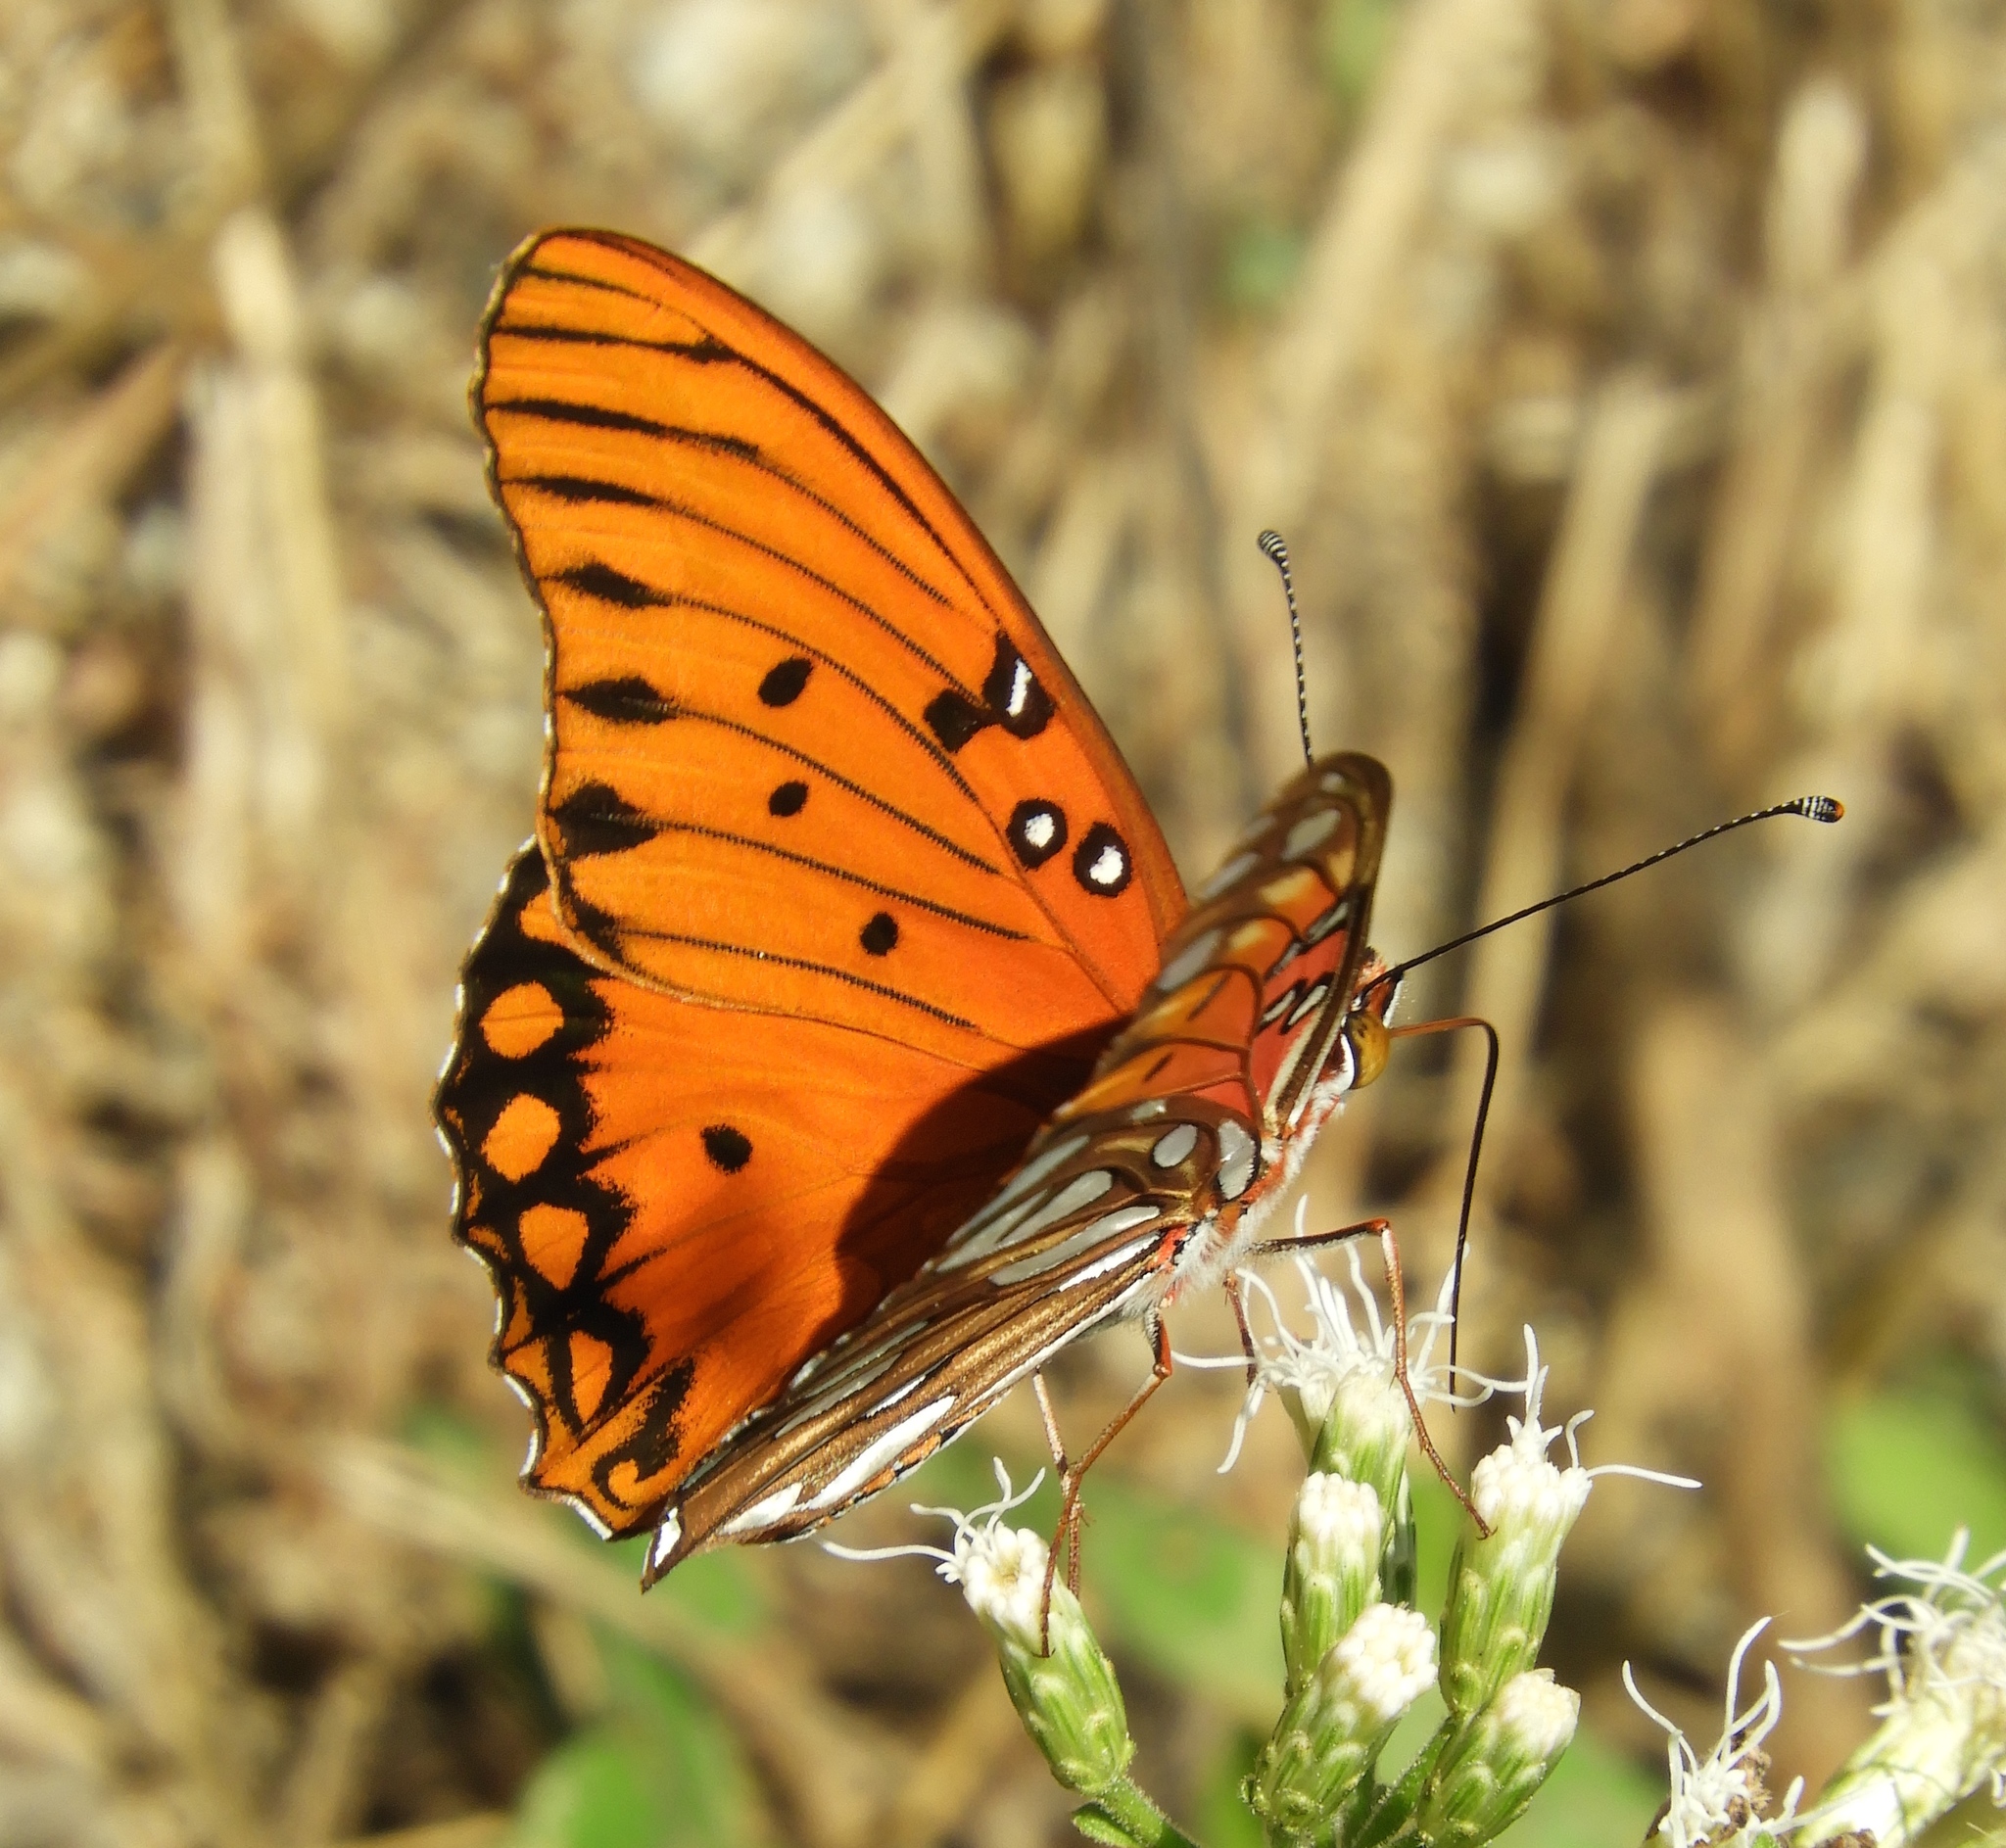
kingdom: Animalia
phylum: Arthropoda
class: Insecta
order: Lepidoptera
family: Nymphalidae
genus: Dione
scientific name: Dione vanillae
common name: Gulf fritillary
